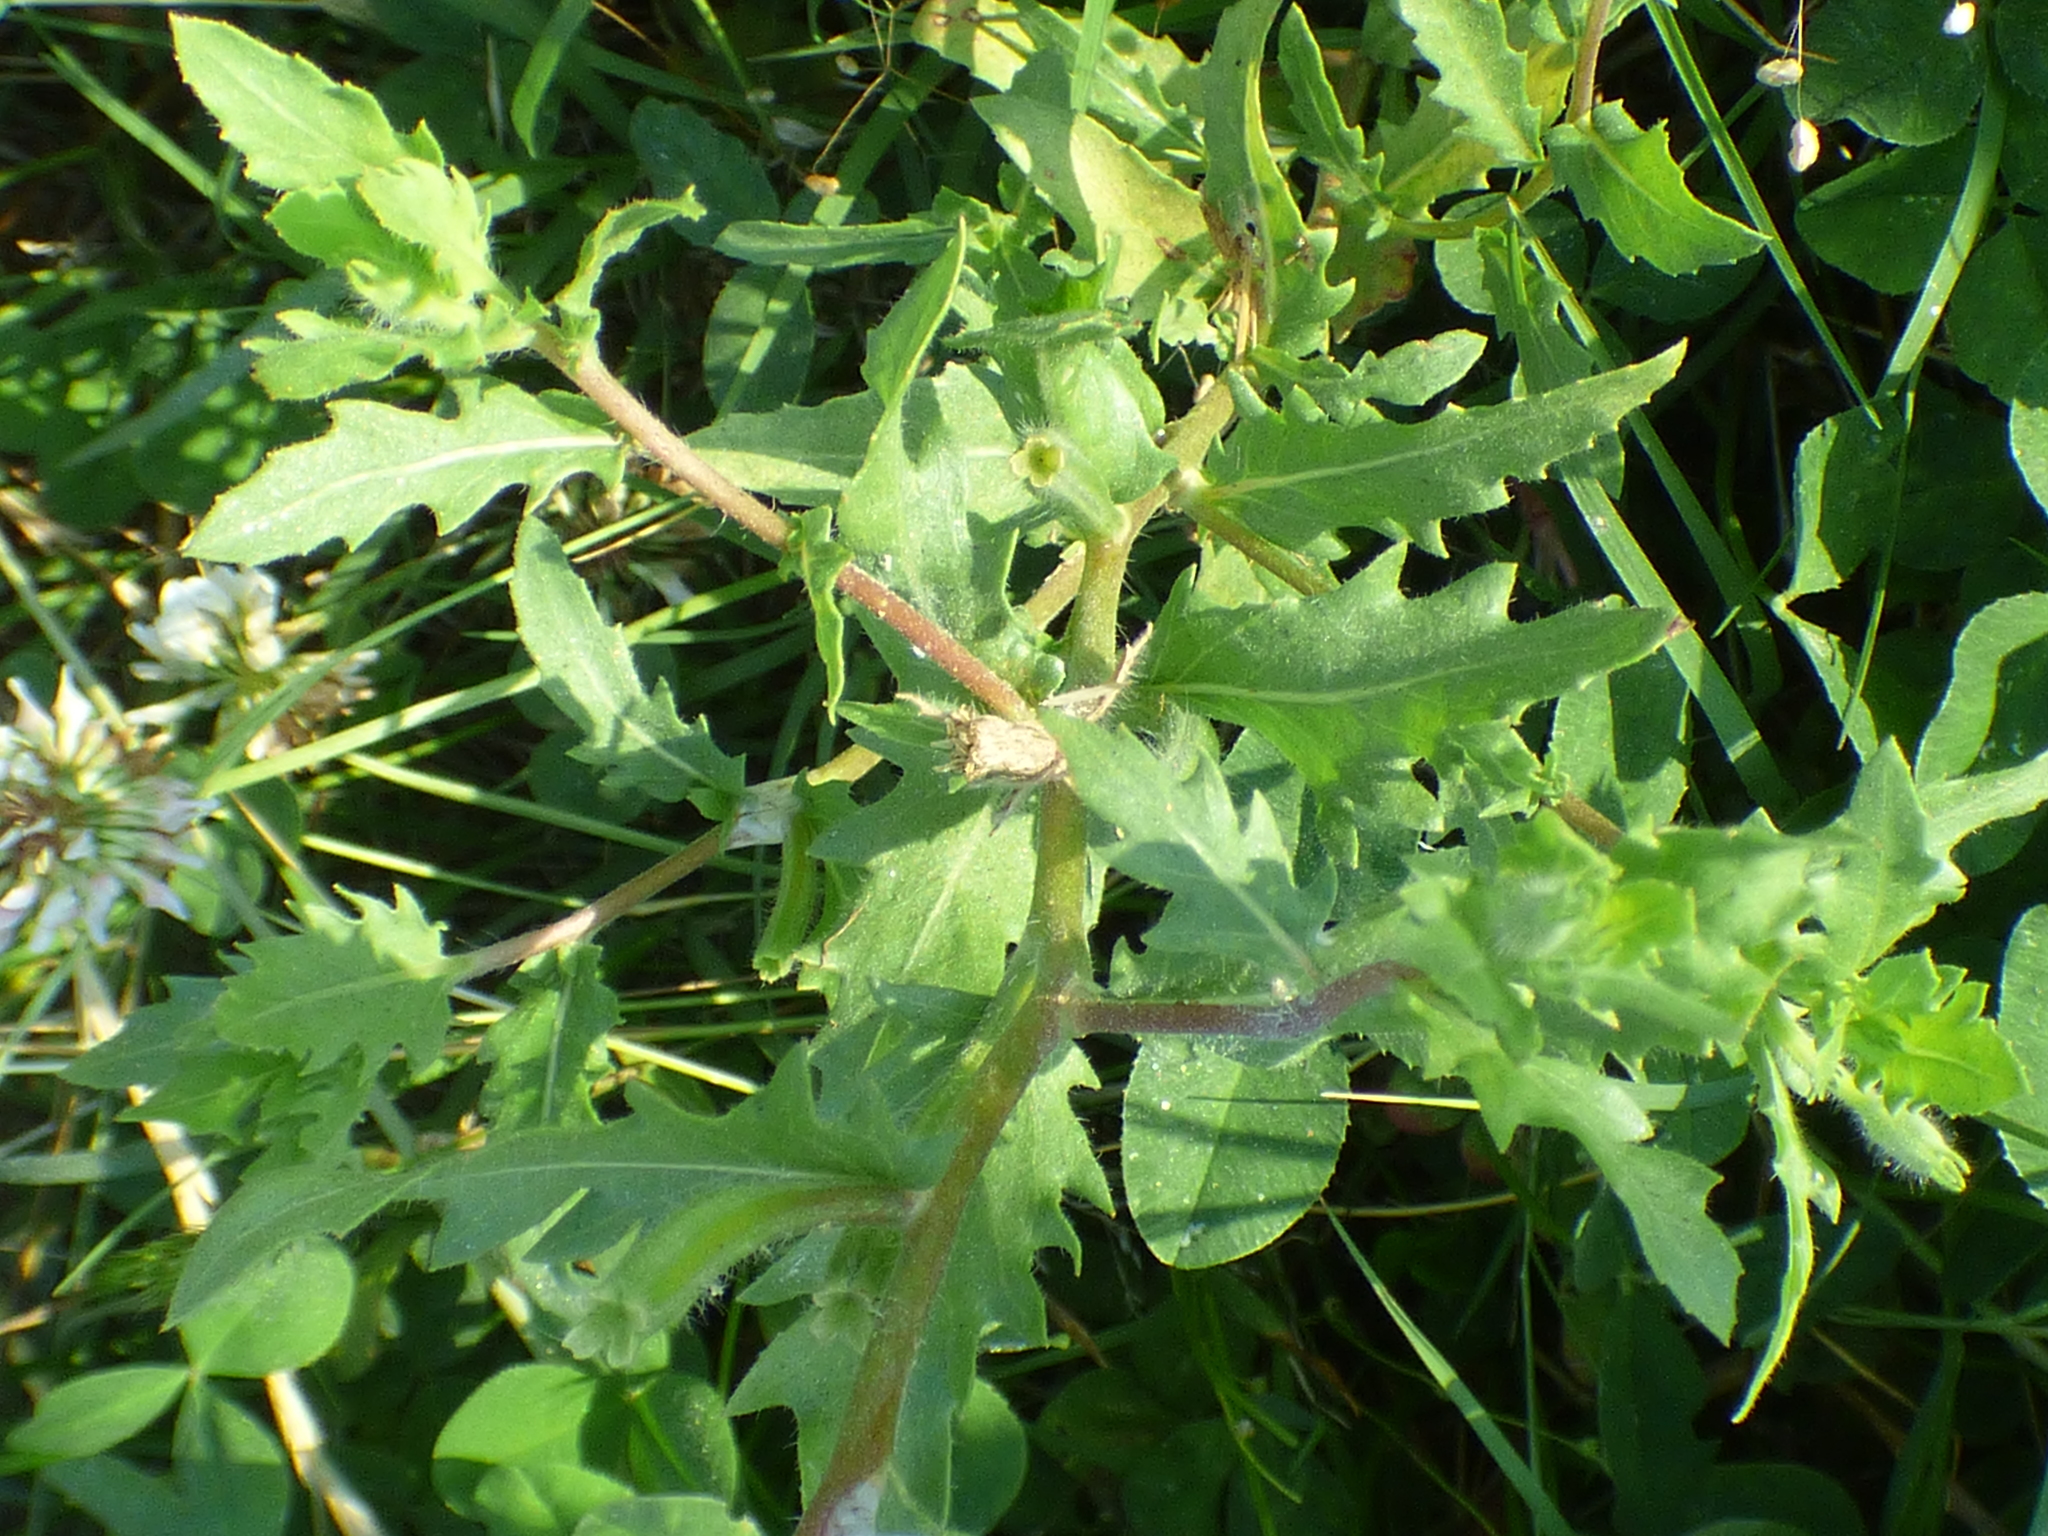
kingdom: Plantae
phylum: Tracheophyta
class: Magnoliopsida
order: Myrtales
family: Onagraceae
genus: Oenothera
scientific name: Oenothera laciniata
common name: Cut-leaved evening-primrose
